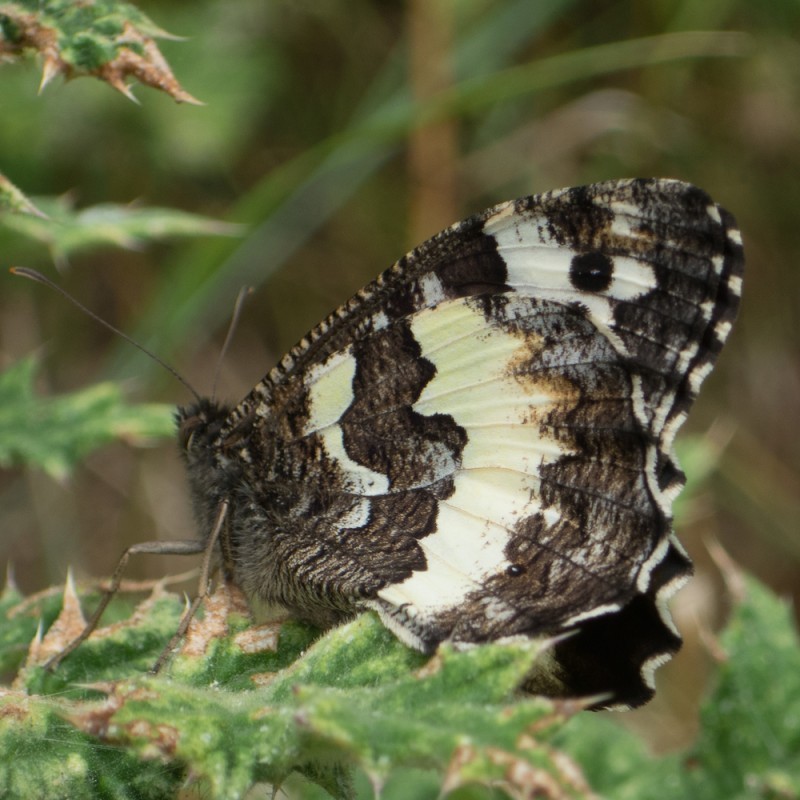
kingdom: Animalia
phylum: Arthropoda
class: Insecta
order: Lepidoptera
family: Lycaenidae
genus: Loweia
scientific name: Loweia tityrus
